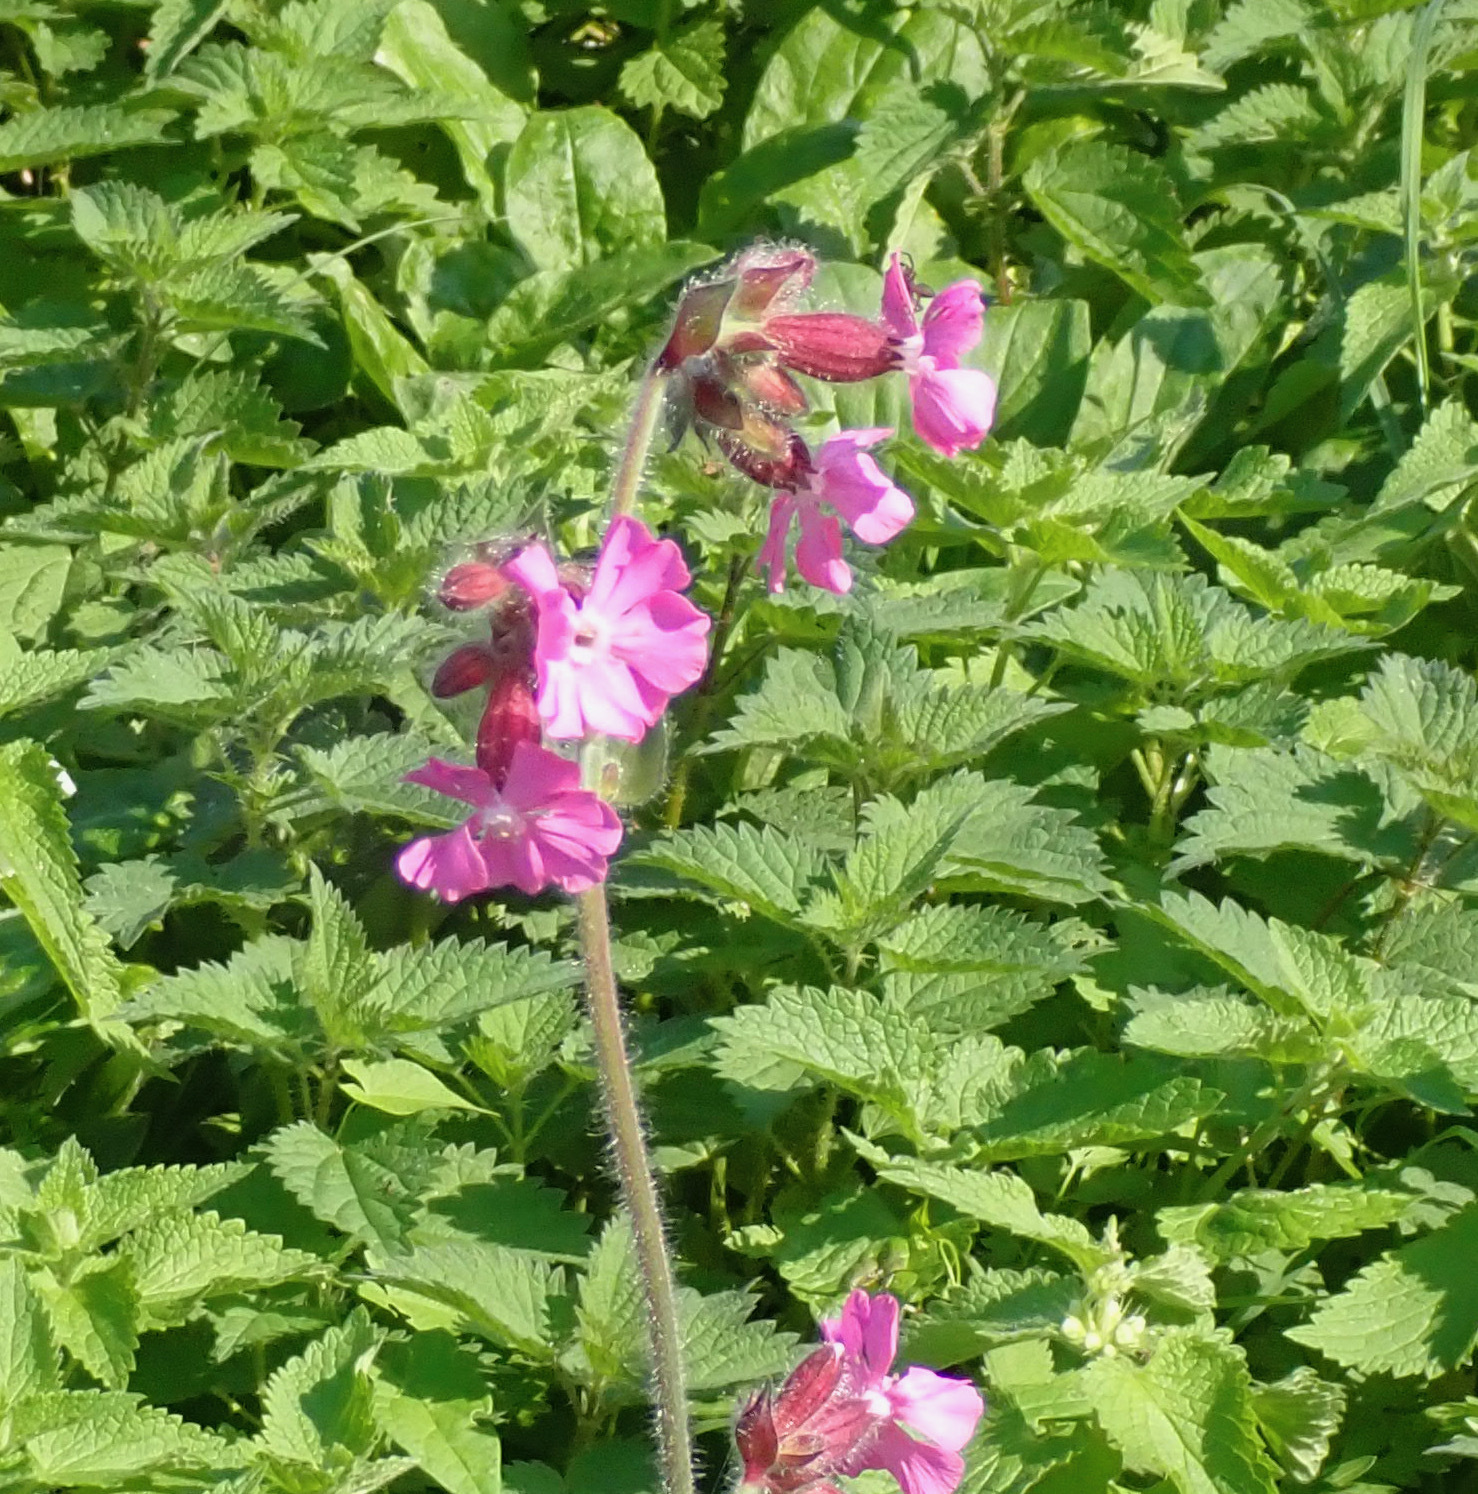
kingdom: Plantae
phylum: Tracheophyta
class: Magnoliopsida
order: Caryophyllales
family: Caryophyllaceae
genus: Silene
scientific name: Silene dioica
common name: Red campion
